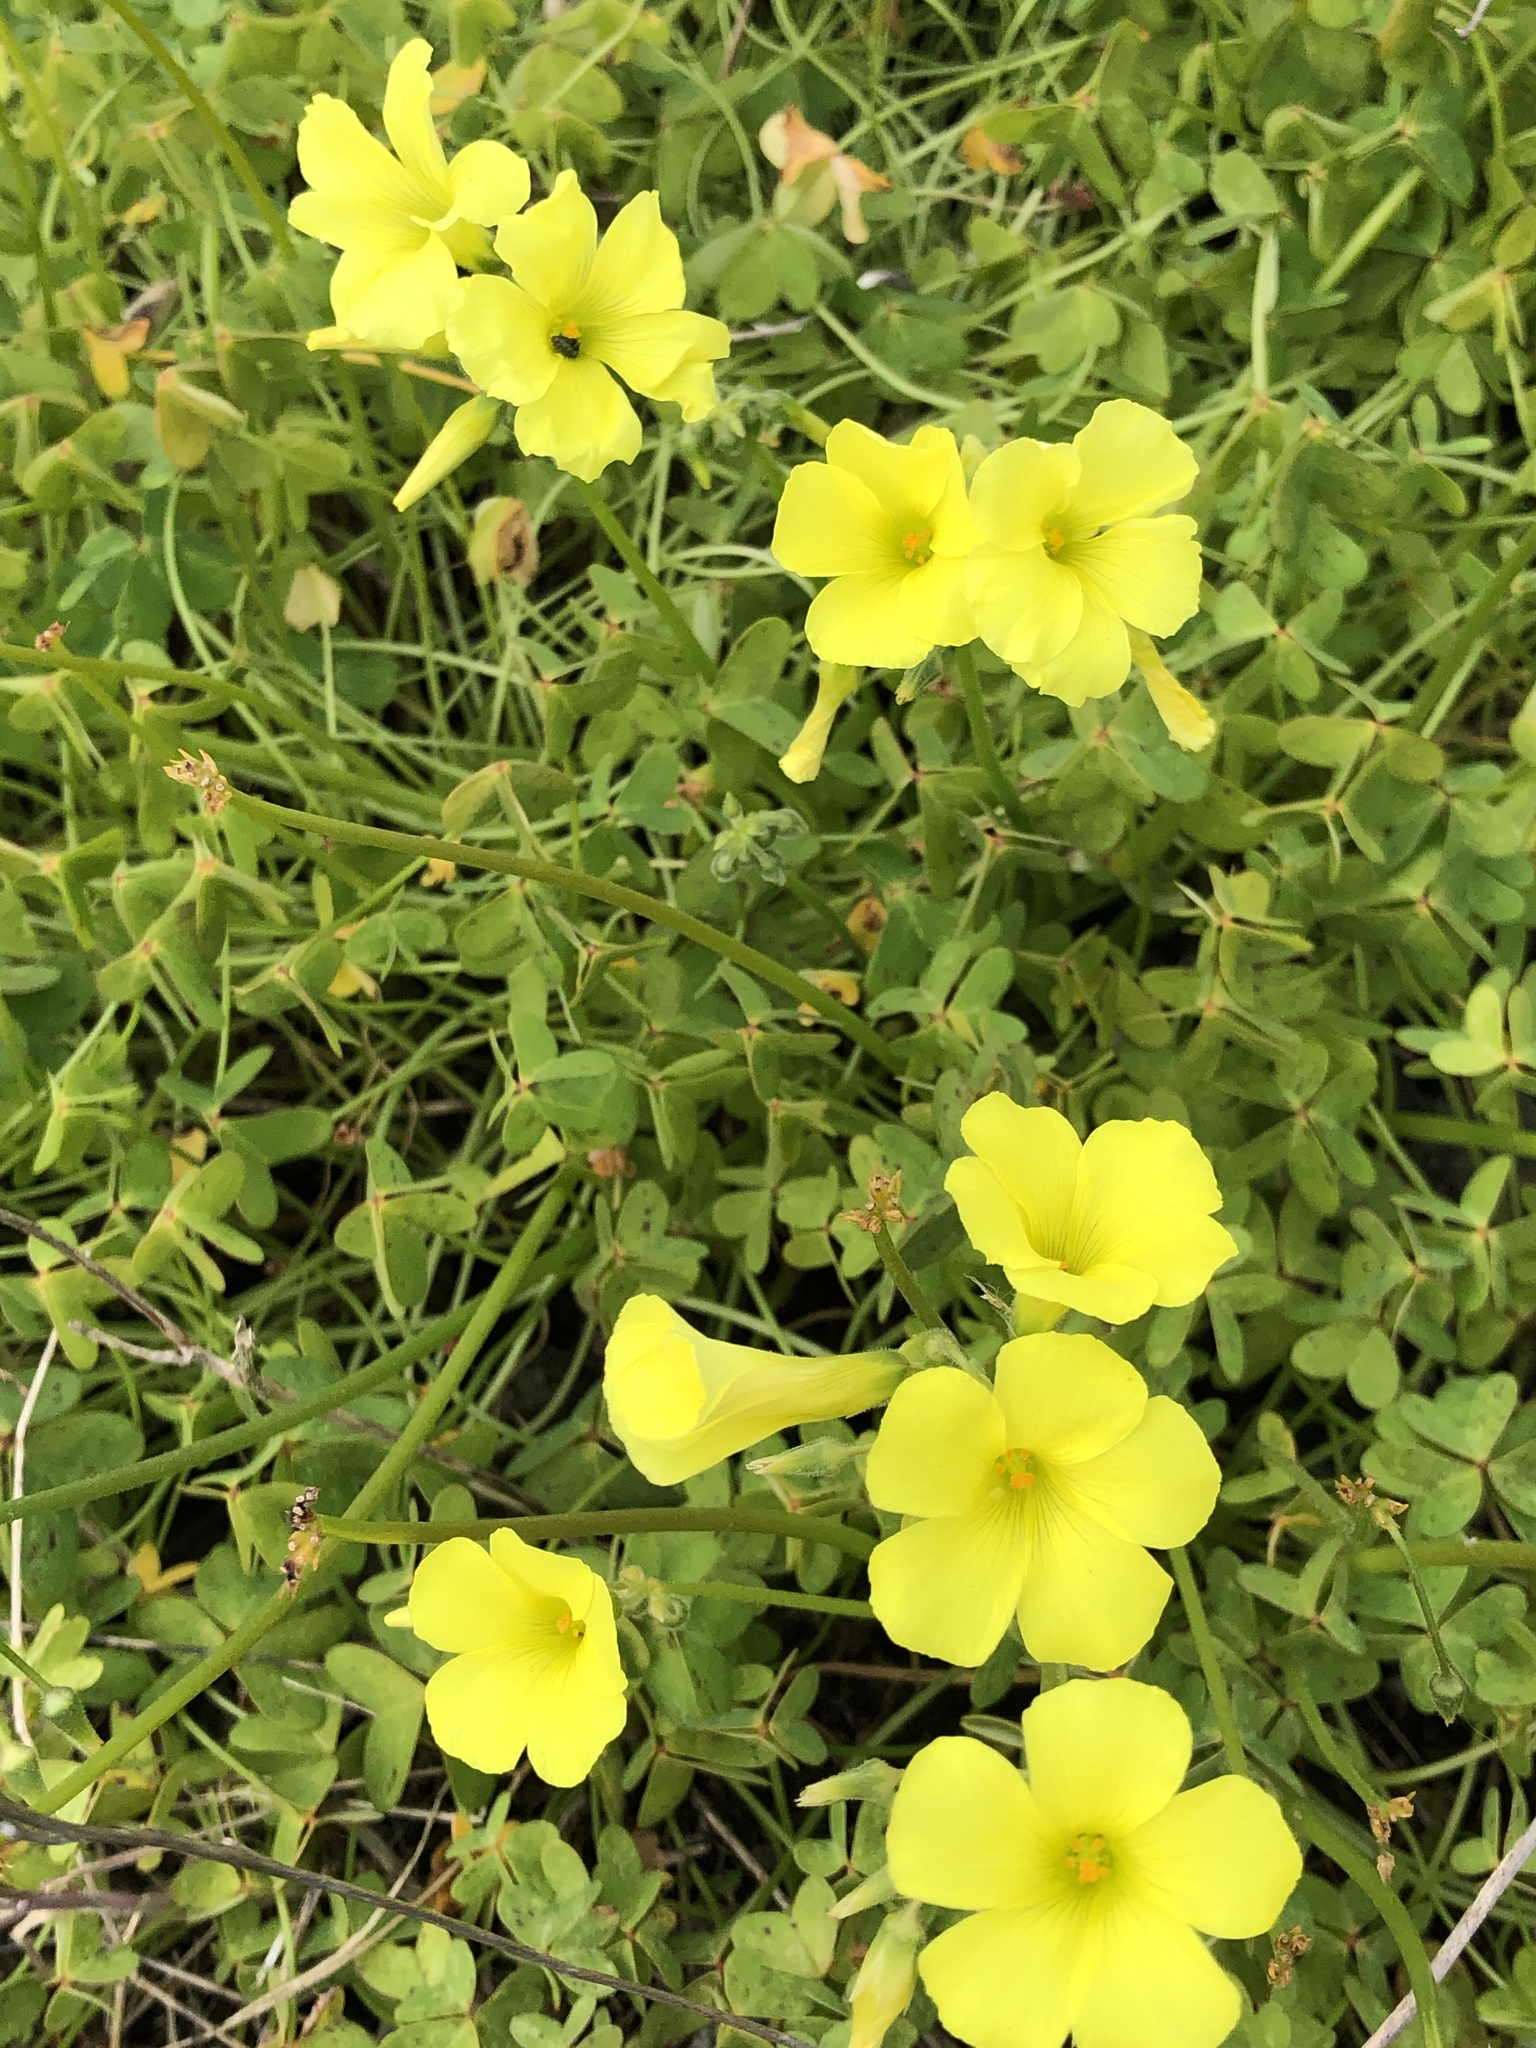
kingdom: Plantae
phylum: Tracheophyta
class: Magnoliopsida
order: Oxalidales
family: Oxalidaceae
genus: Oxalis
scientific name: Oxalis pes-caprae
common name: Bermuda-buttercup
